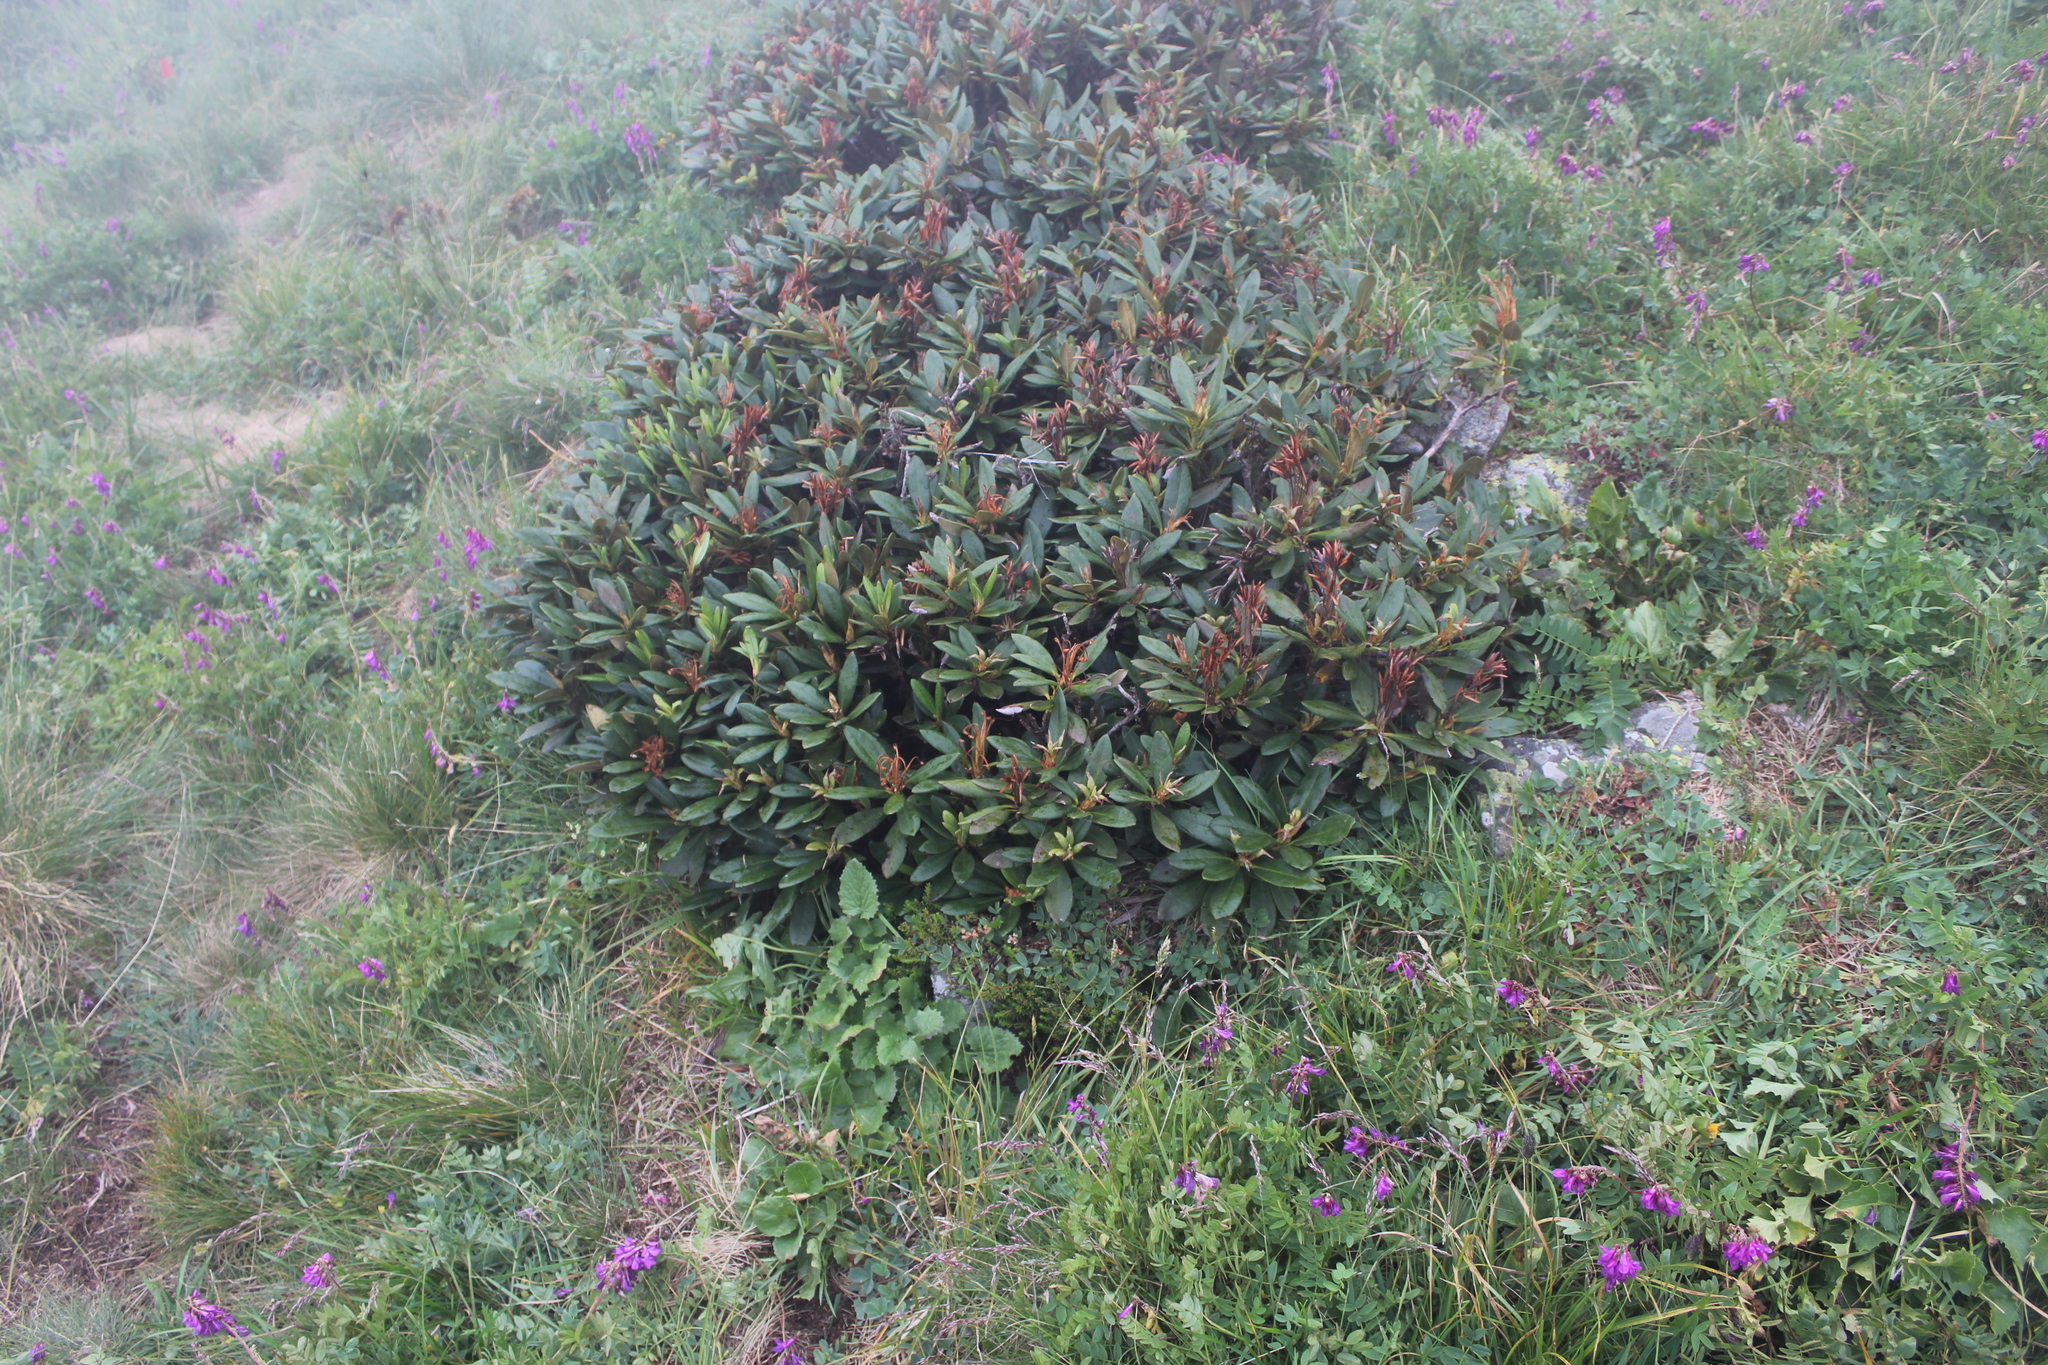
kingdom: Plantae
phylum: Tracheophyta
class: Magnoliopsida
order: Ericales
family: Ericaceae
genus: Rhododendron
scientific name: Rhododendron caucasicum
